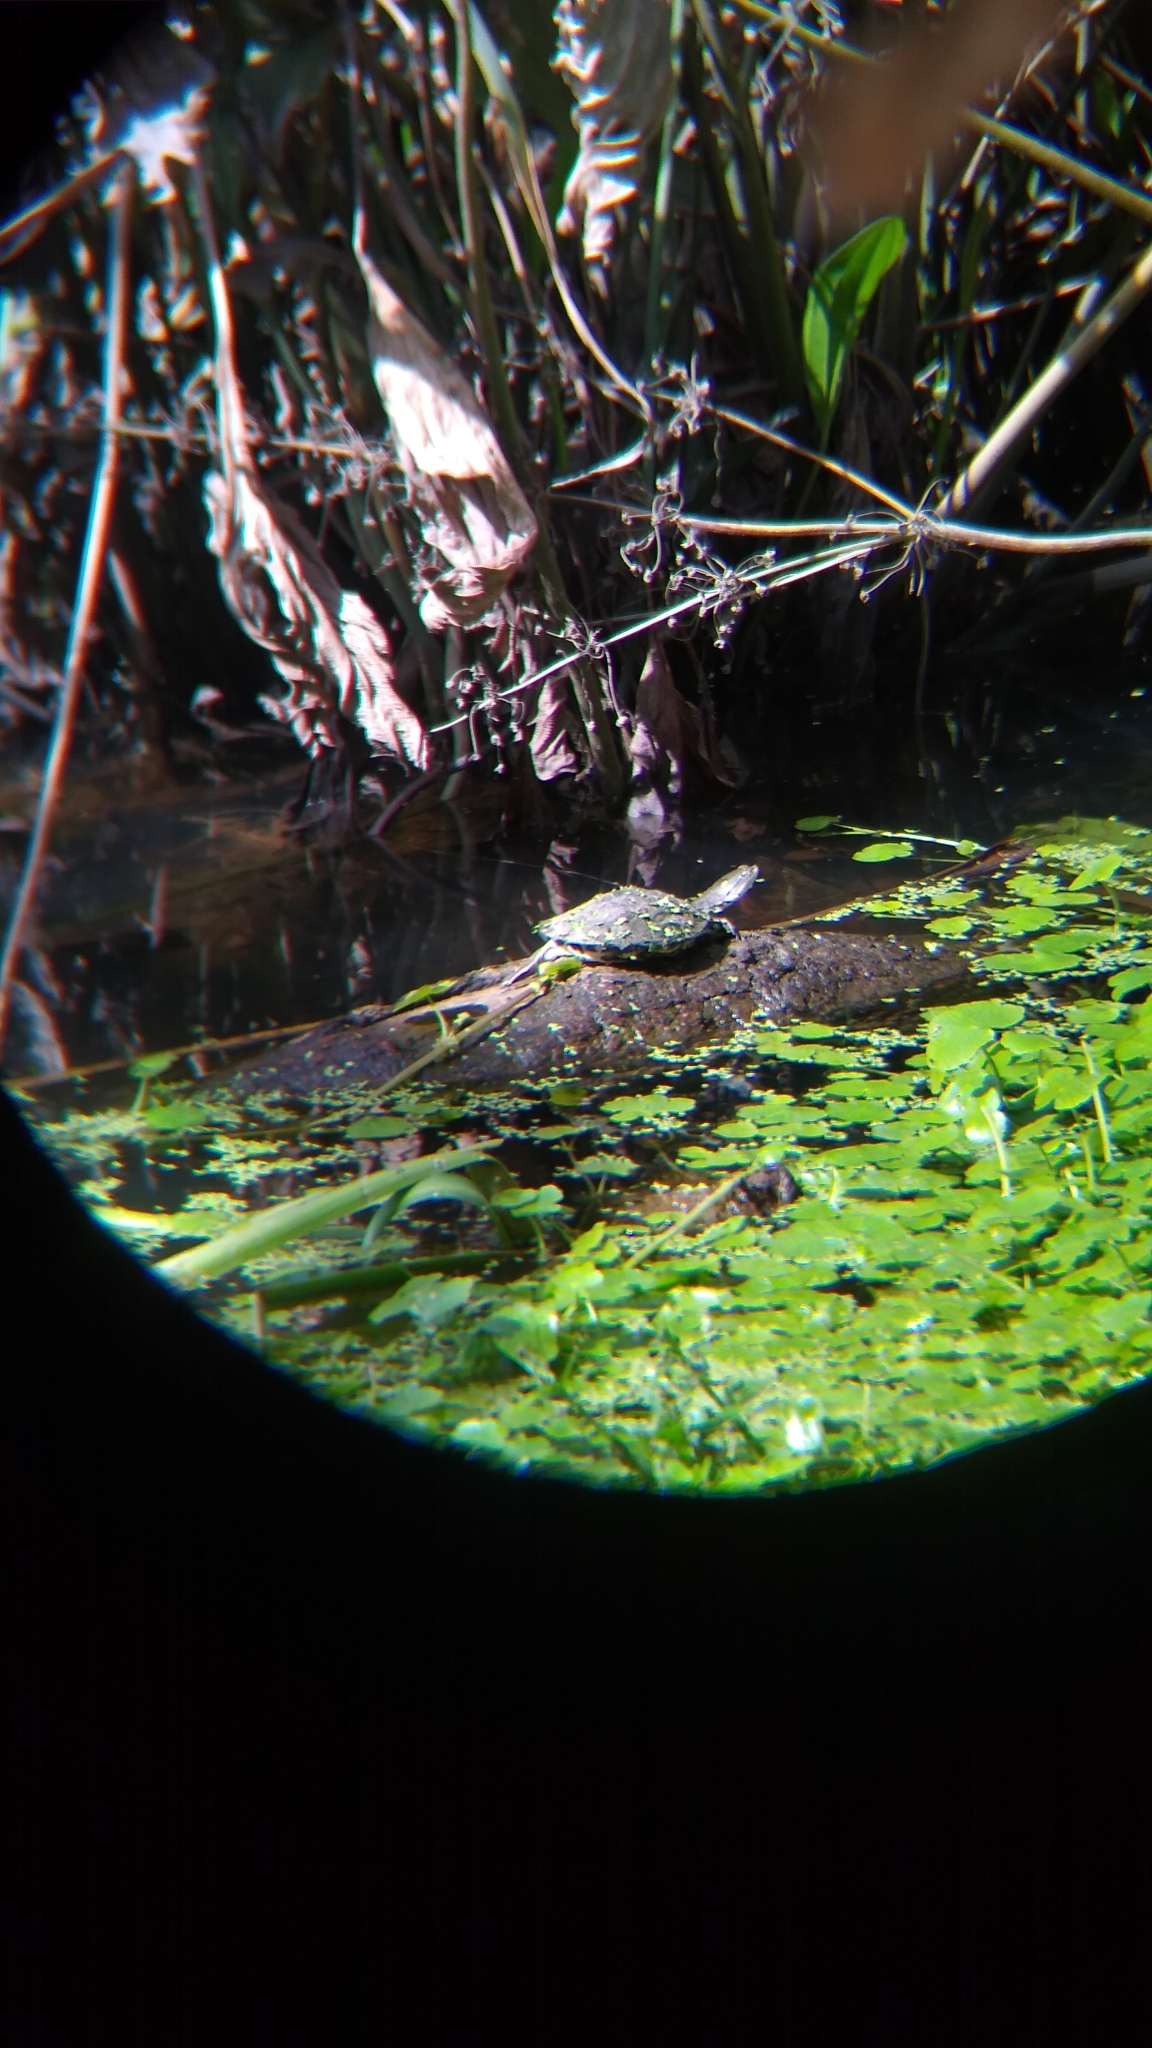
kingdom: Animalia
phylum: Chordata
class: Testudines
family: Chelidae
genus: Phrynops
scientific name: Phrynops hilarii
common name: Side-necked turtle of saint hillaire
